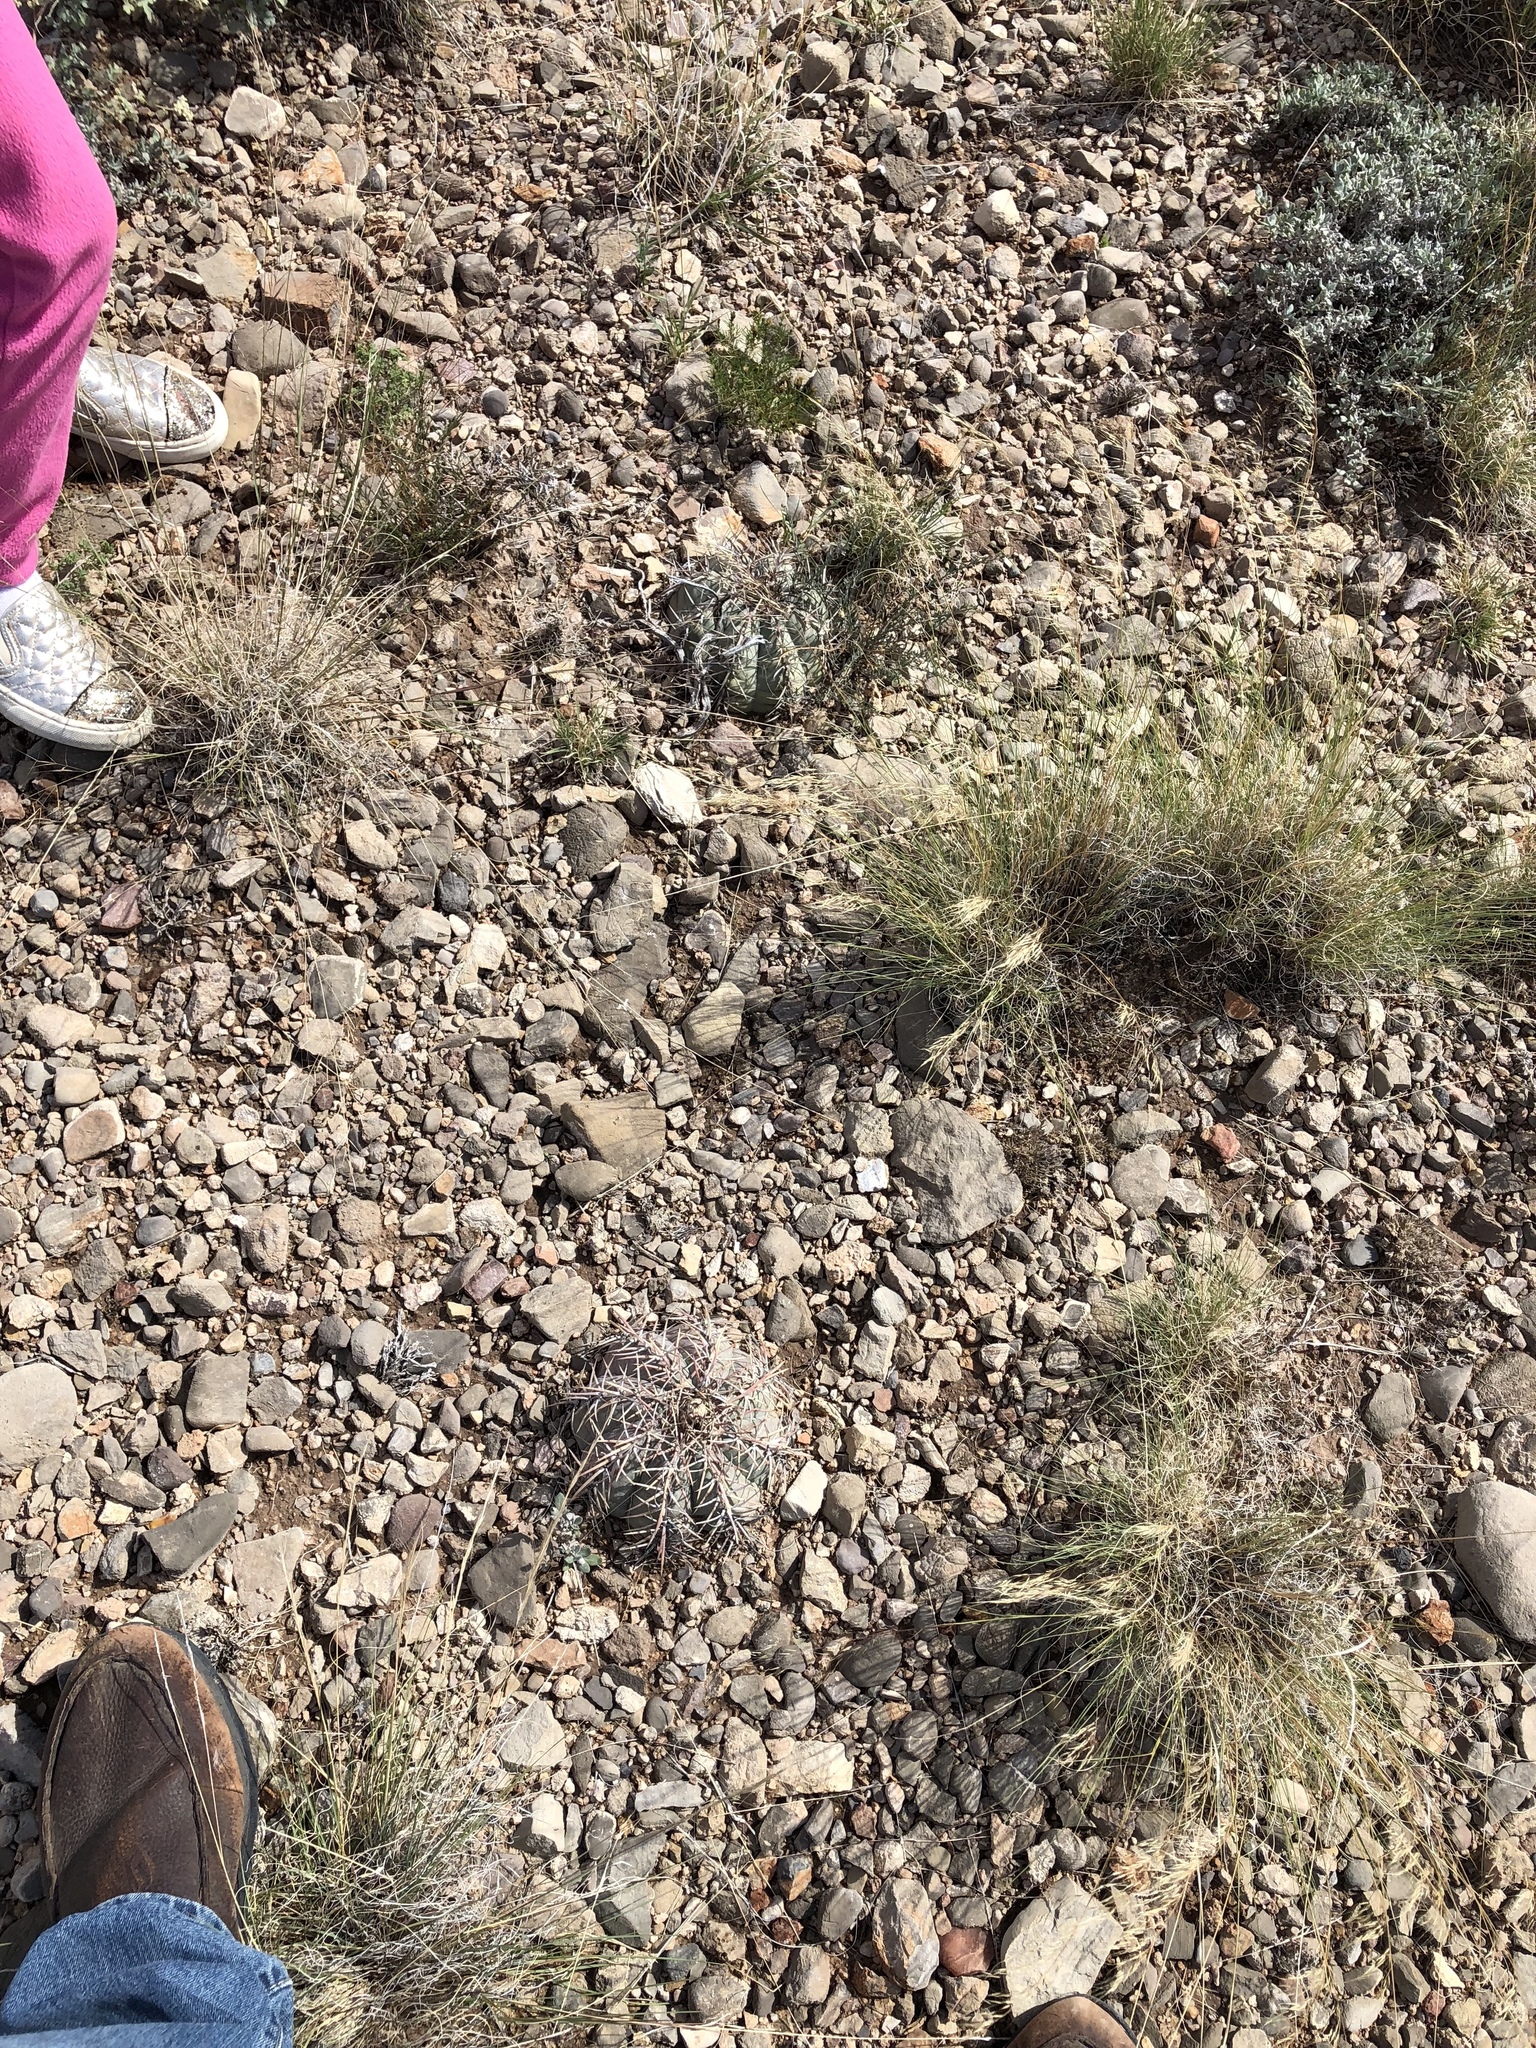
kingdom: Plantae
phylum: Tracheophyta
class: Magnoliopsida
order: Caryophyllales
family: Cactaceae
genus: Echinocactus
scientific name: Echinocactus horizonthalonius
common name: Devilshead
